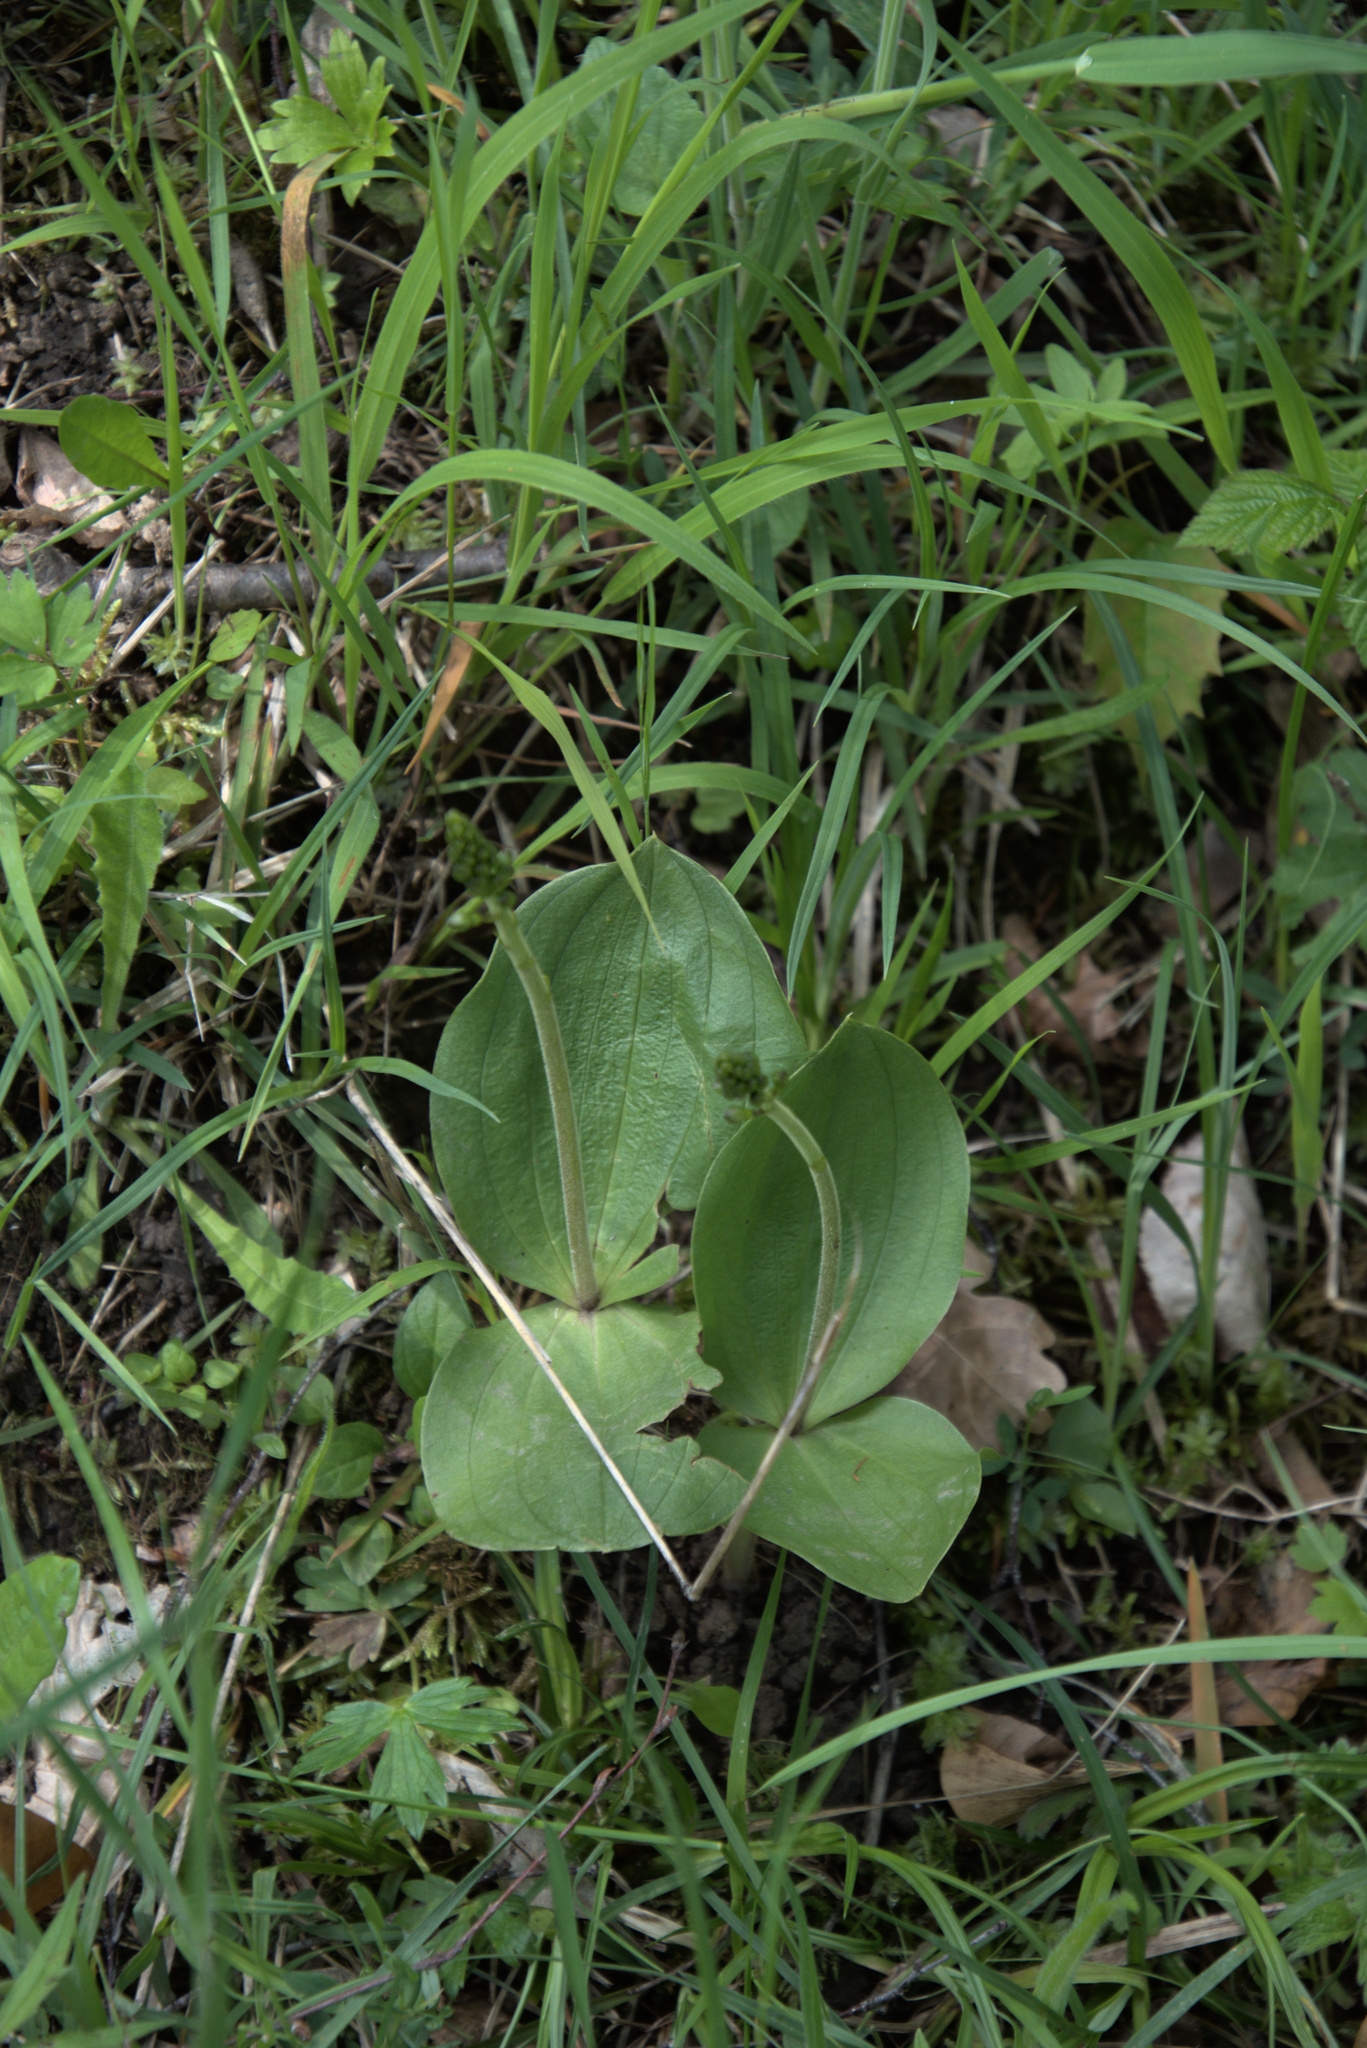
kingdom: Plantae
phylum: Tracheophyta
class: Liliopsida
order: Asparagales
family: Orchidaceae
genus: Neottia
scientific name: Neottia ovata
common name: Common twayblade
